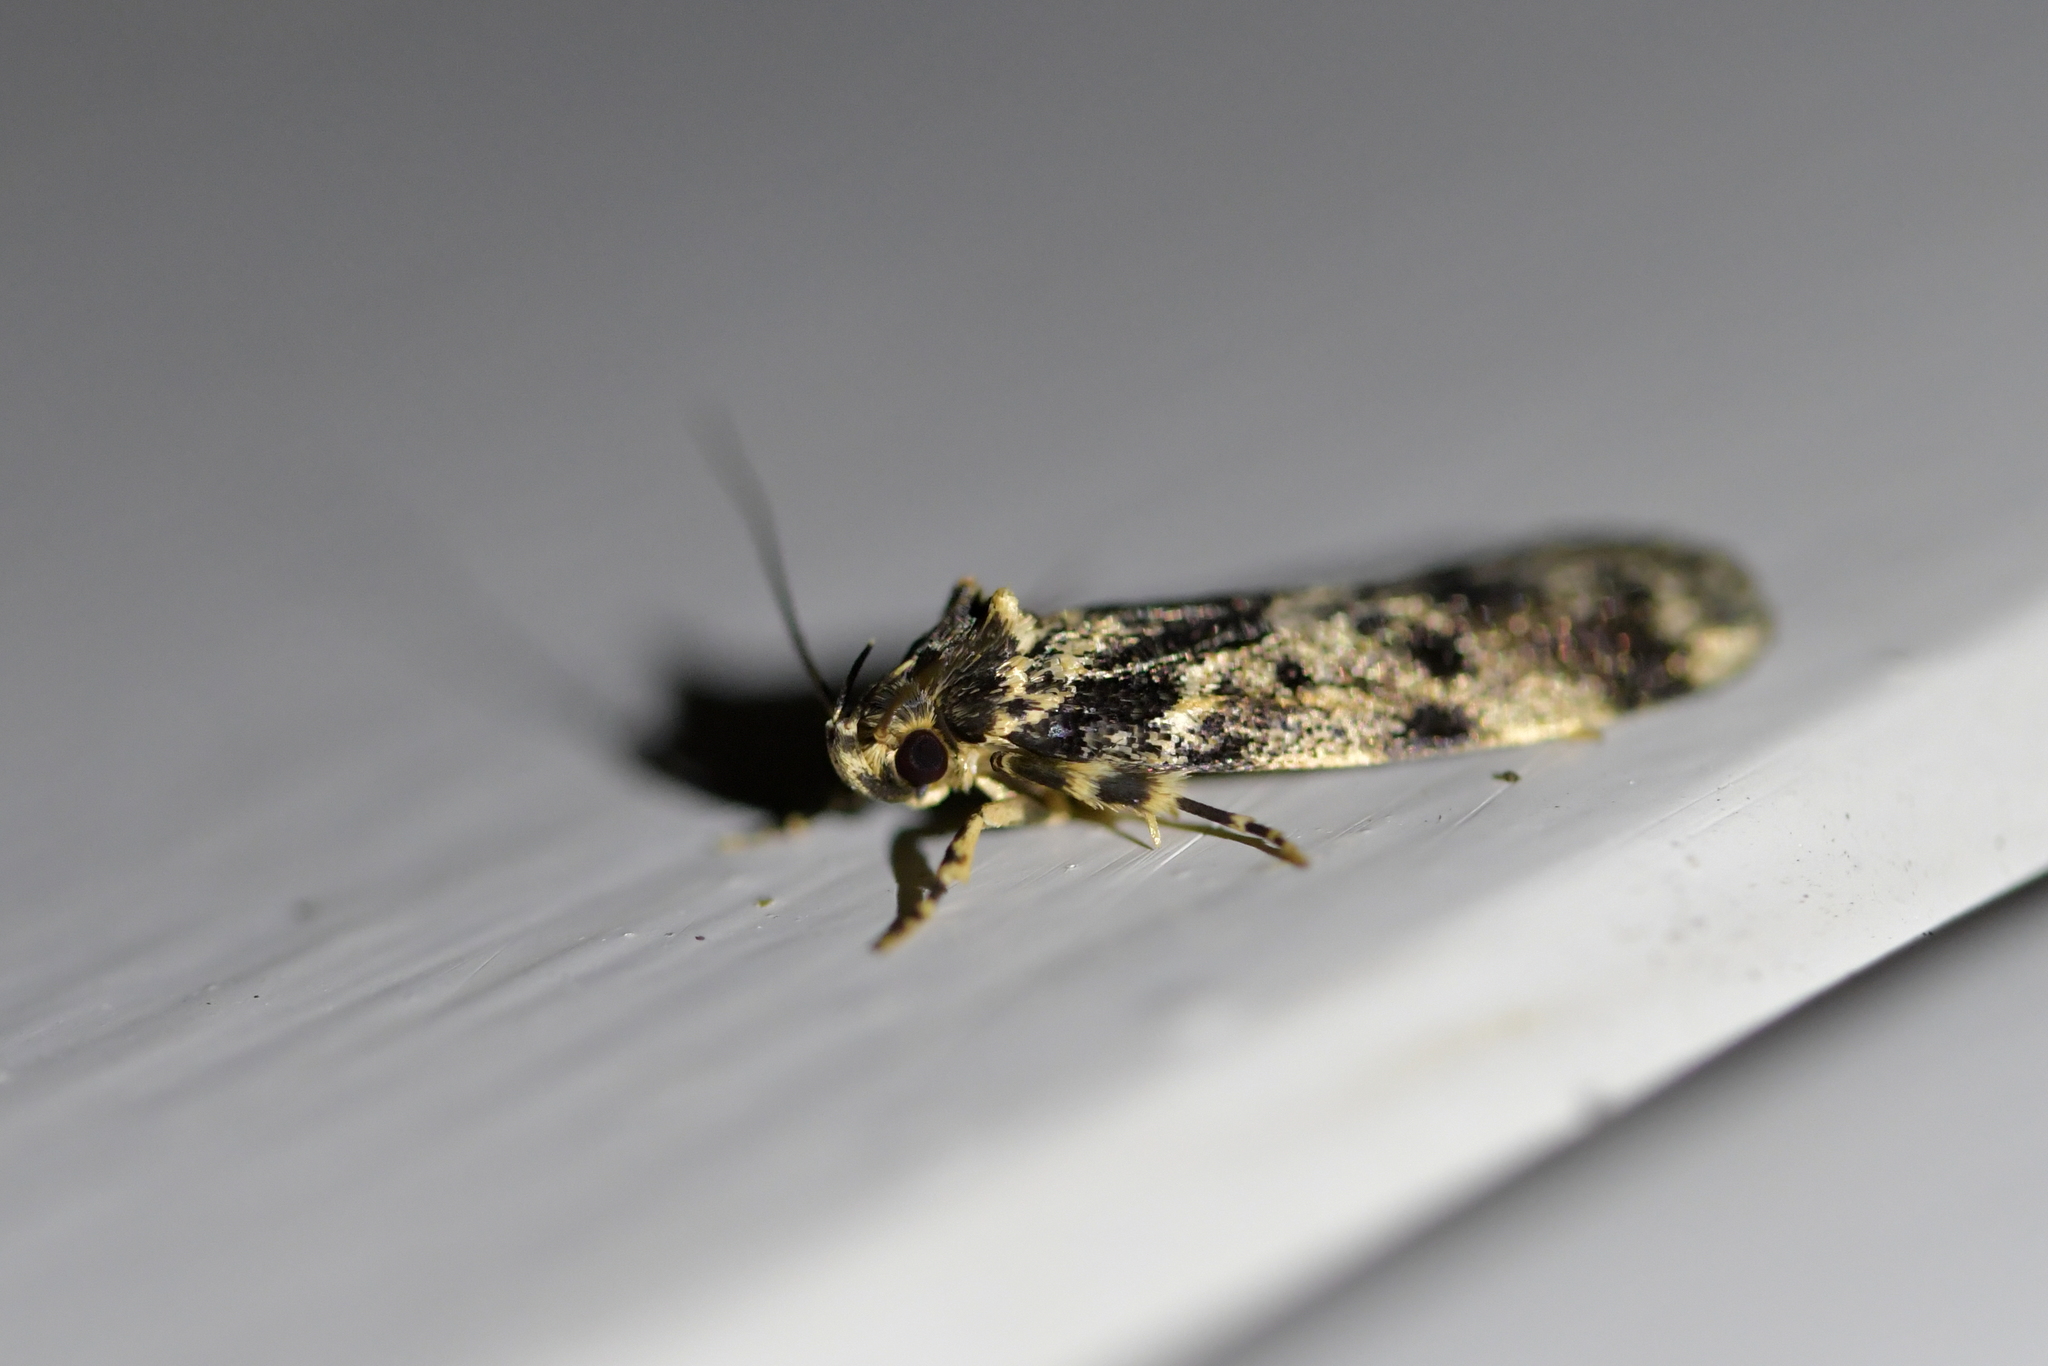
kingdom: Animalia
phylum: Arthropoda
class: Insecta
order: Lepidoptera
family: Oecophoridae
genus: Barea
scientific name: Barea codrella
